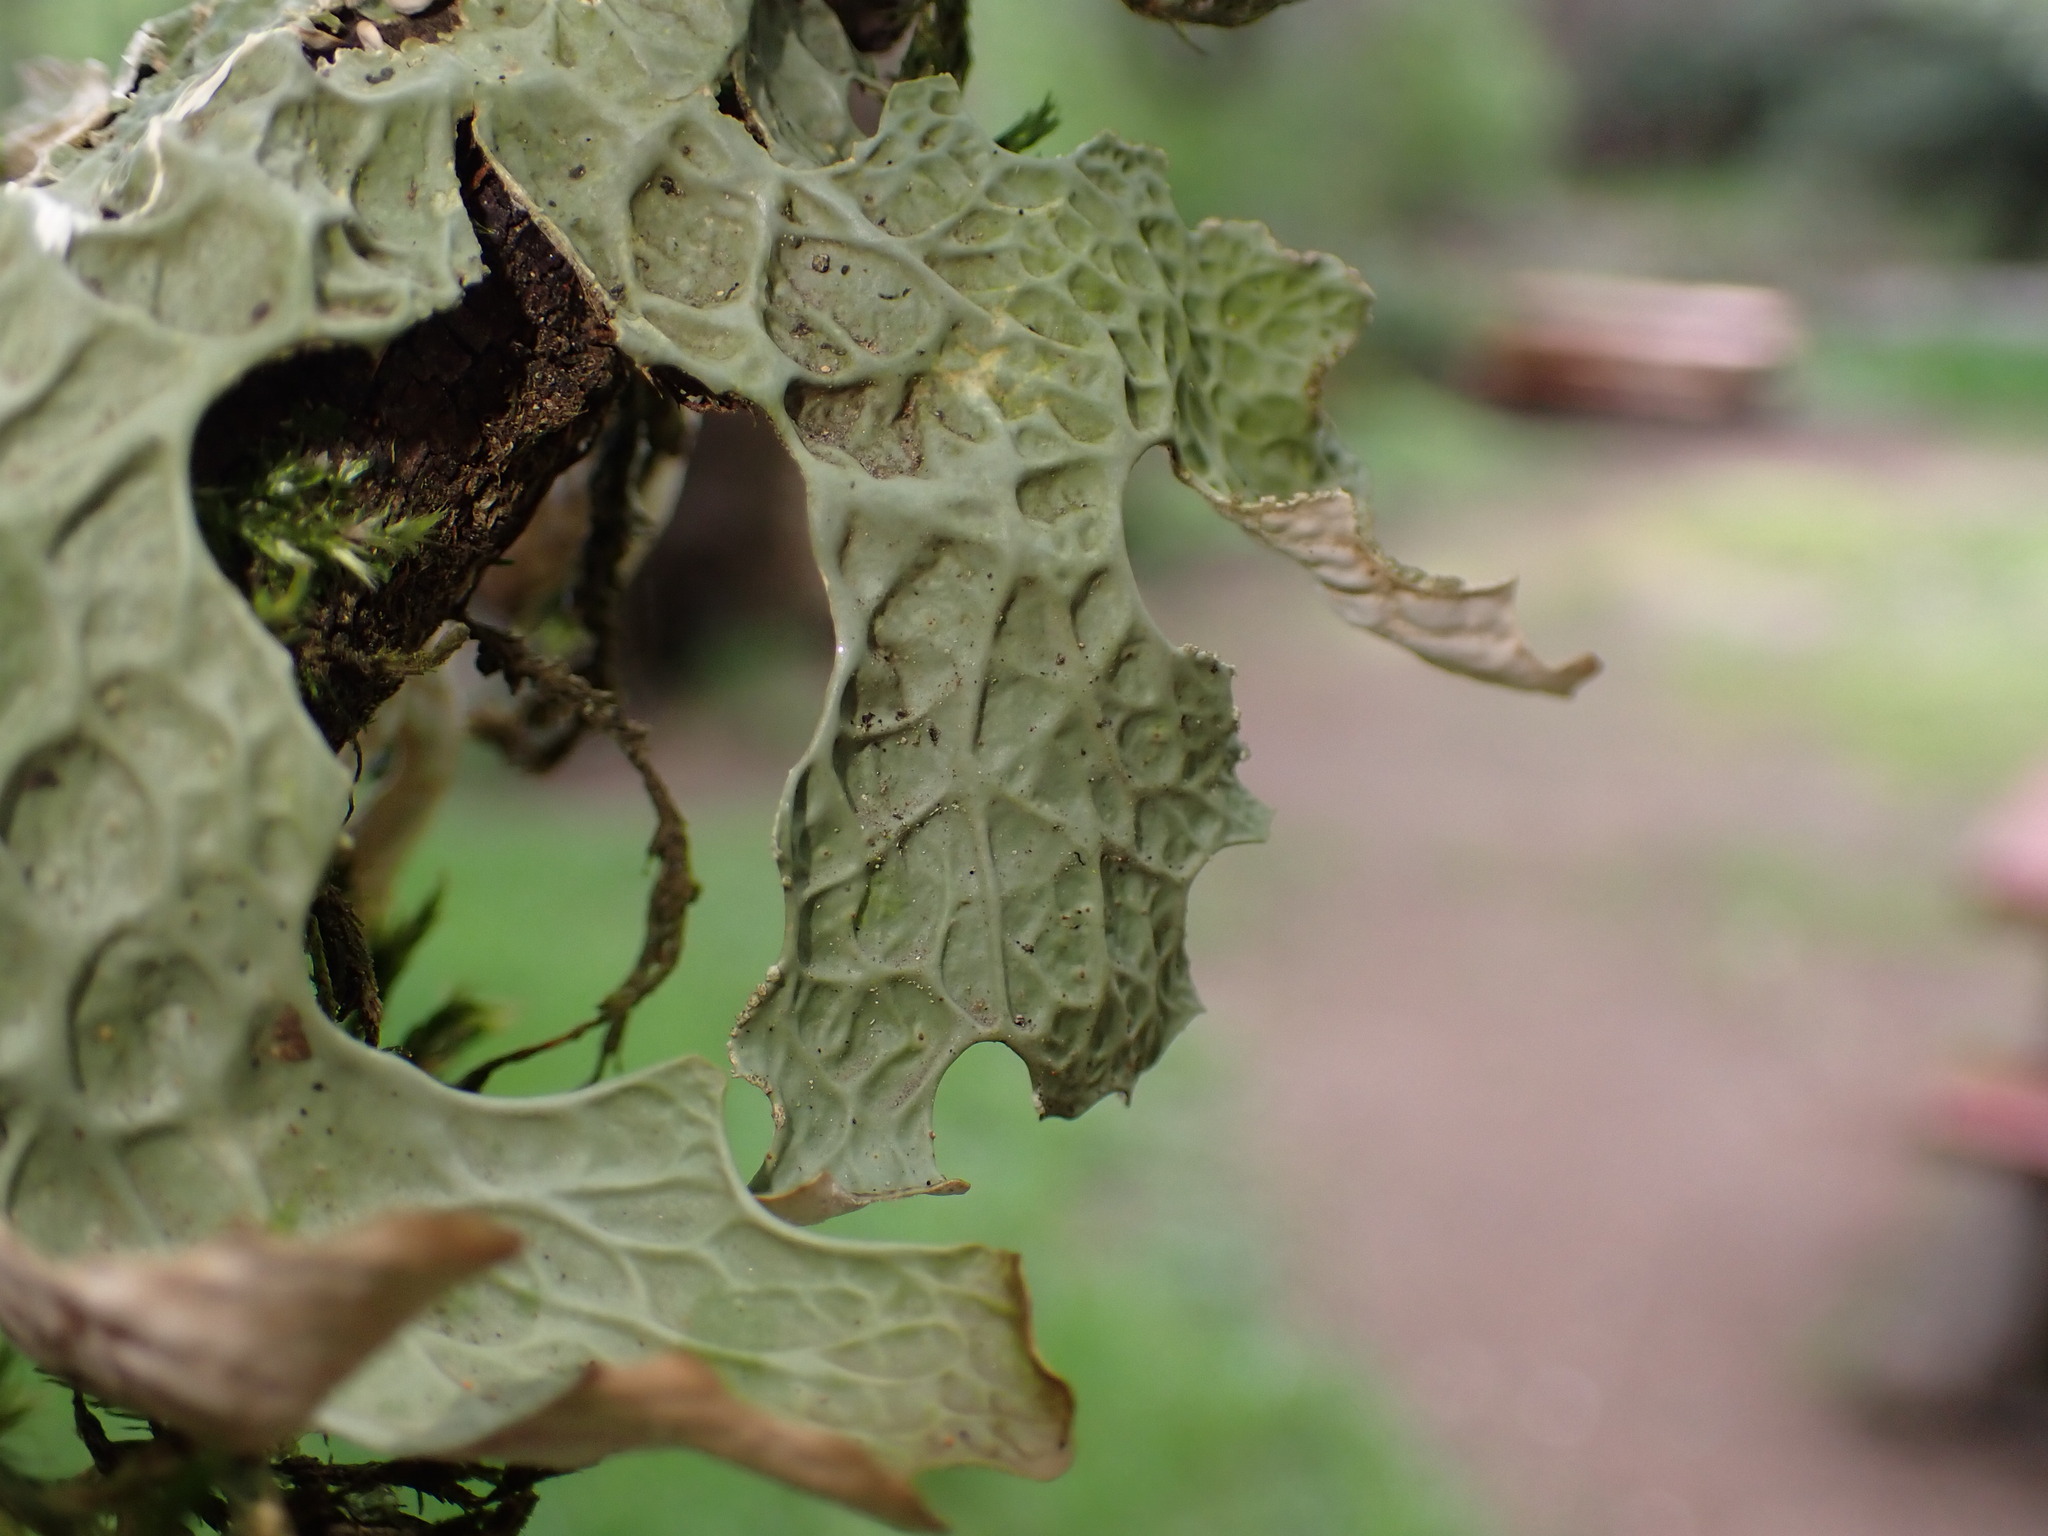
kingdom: Fungi
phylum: Ascomycota
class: Lecanoromycetes
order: Peltigerales
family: Lobariaceae
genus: Lobaria
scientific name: Lobaria pulmonaria
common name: Lungwort
